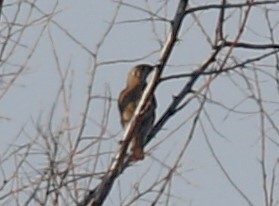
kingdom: Animalia
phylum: Chordata
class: Aves
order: Passeriformes
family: Turdidae
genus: Turdus
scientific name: Turdus viscivorus
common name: Mistle thrush
